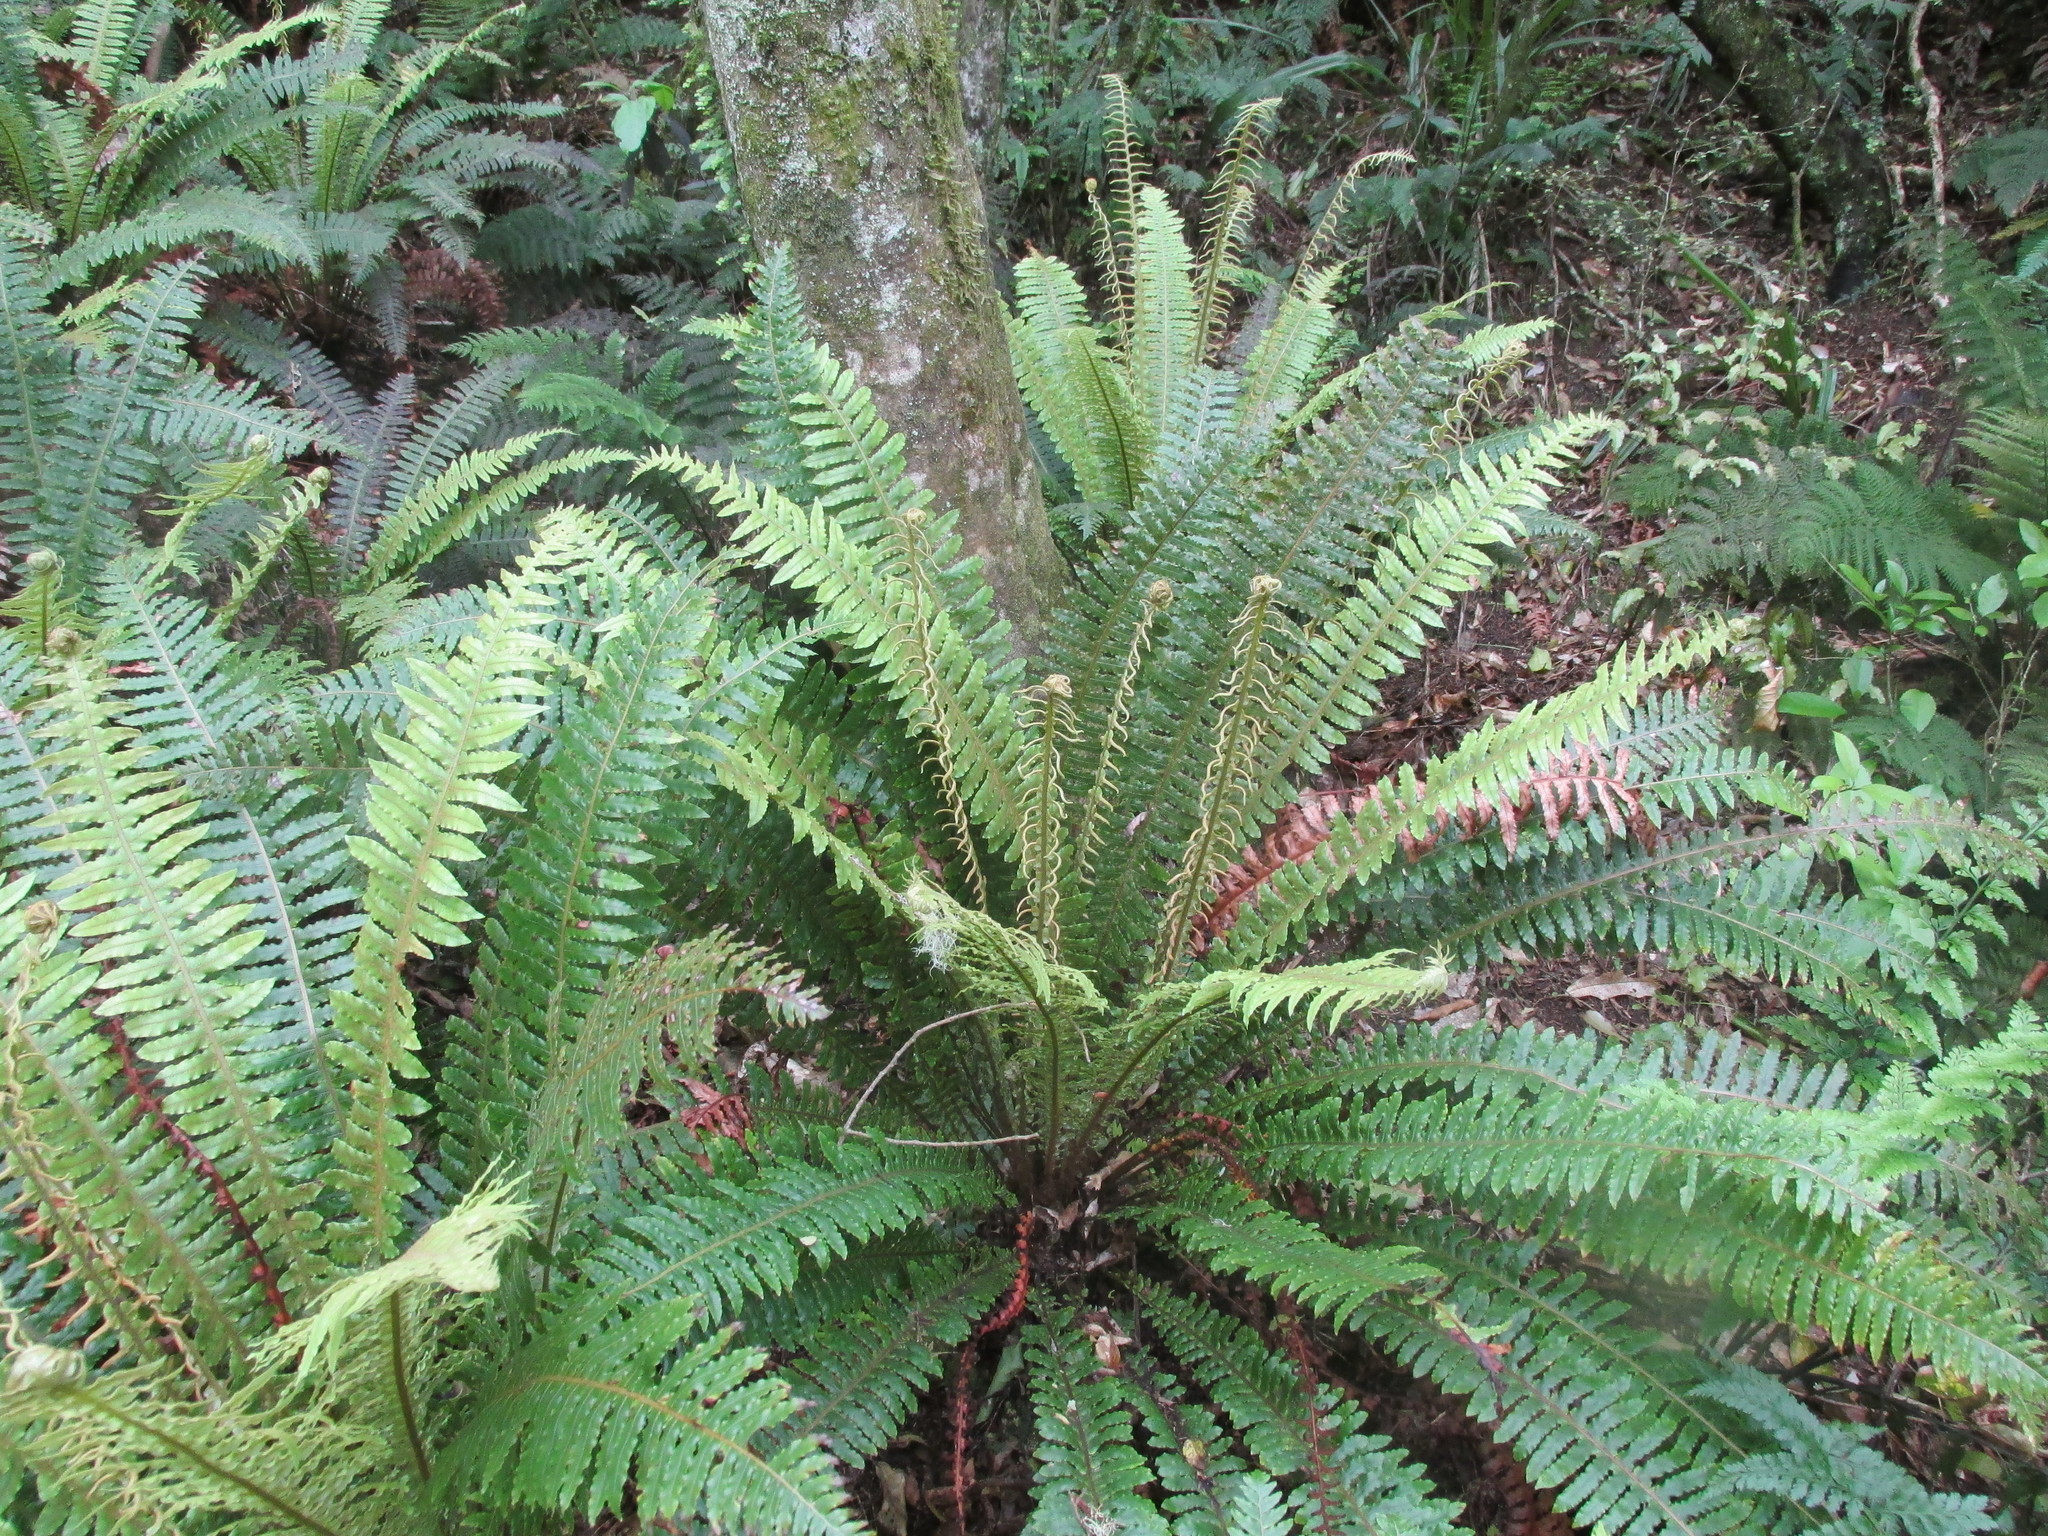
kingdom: Plantae
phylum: Tracheophyta
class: Polypodiopsida
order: Polypodiales
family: Blechnaceae
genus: Lomaria
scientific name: Lomaria discolor
